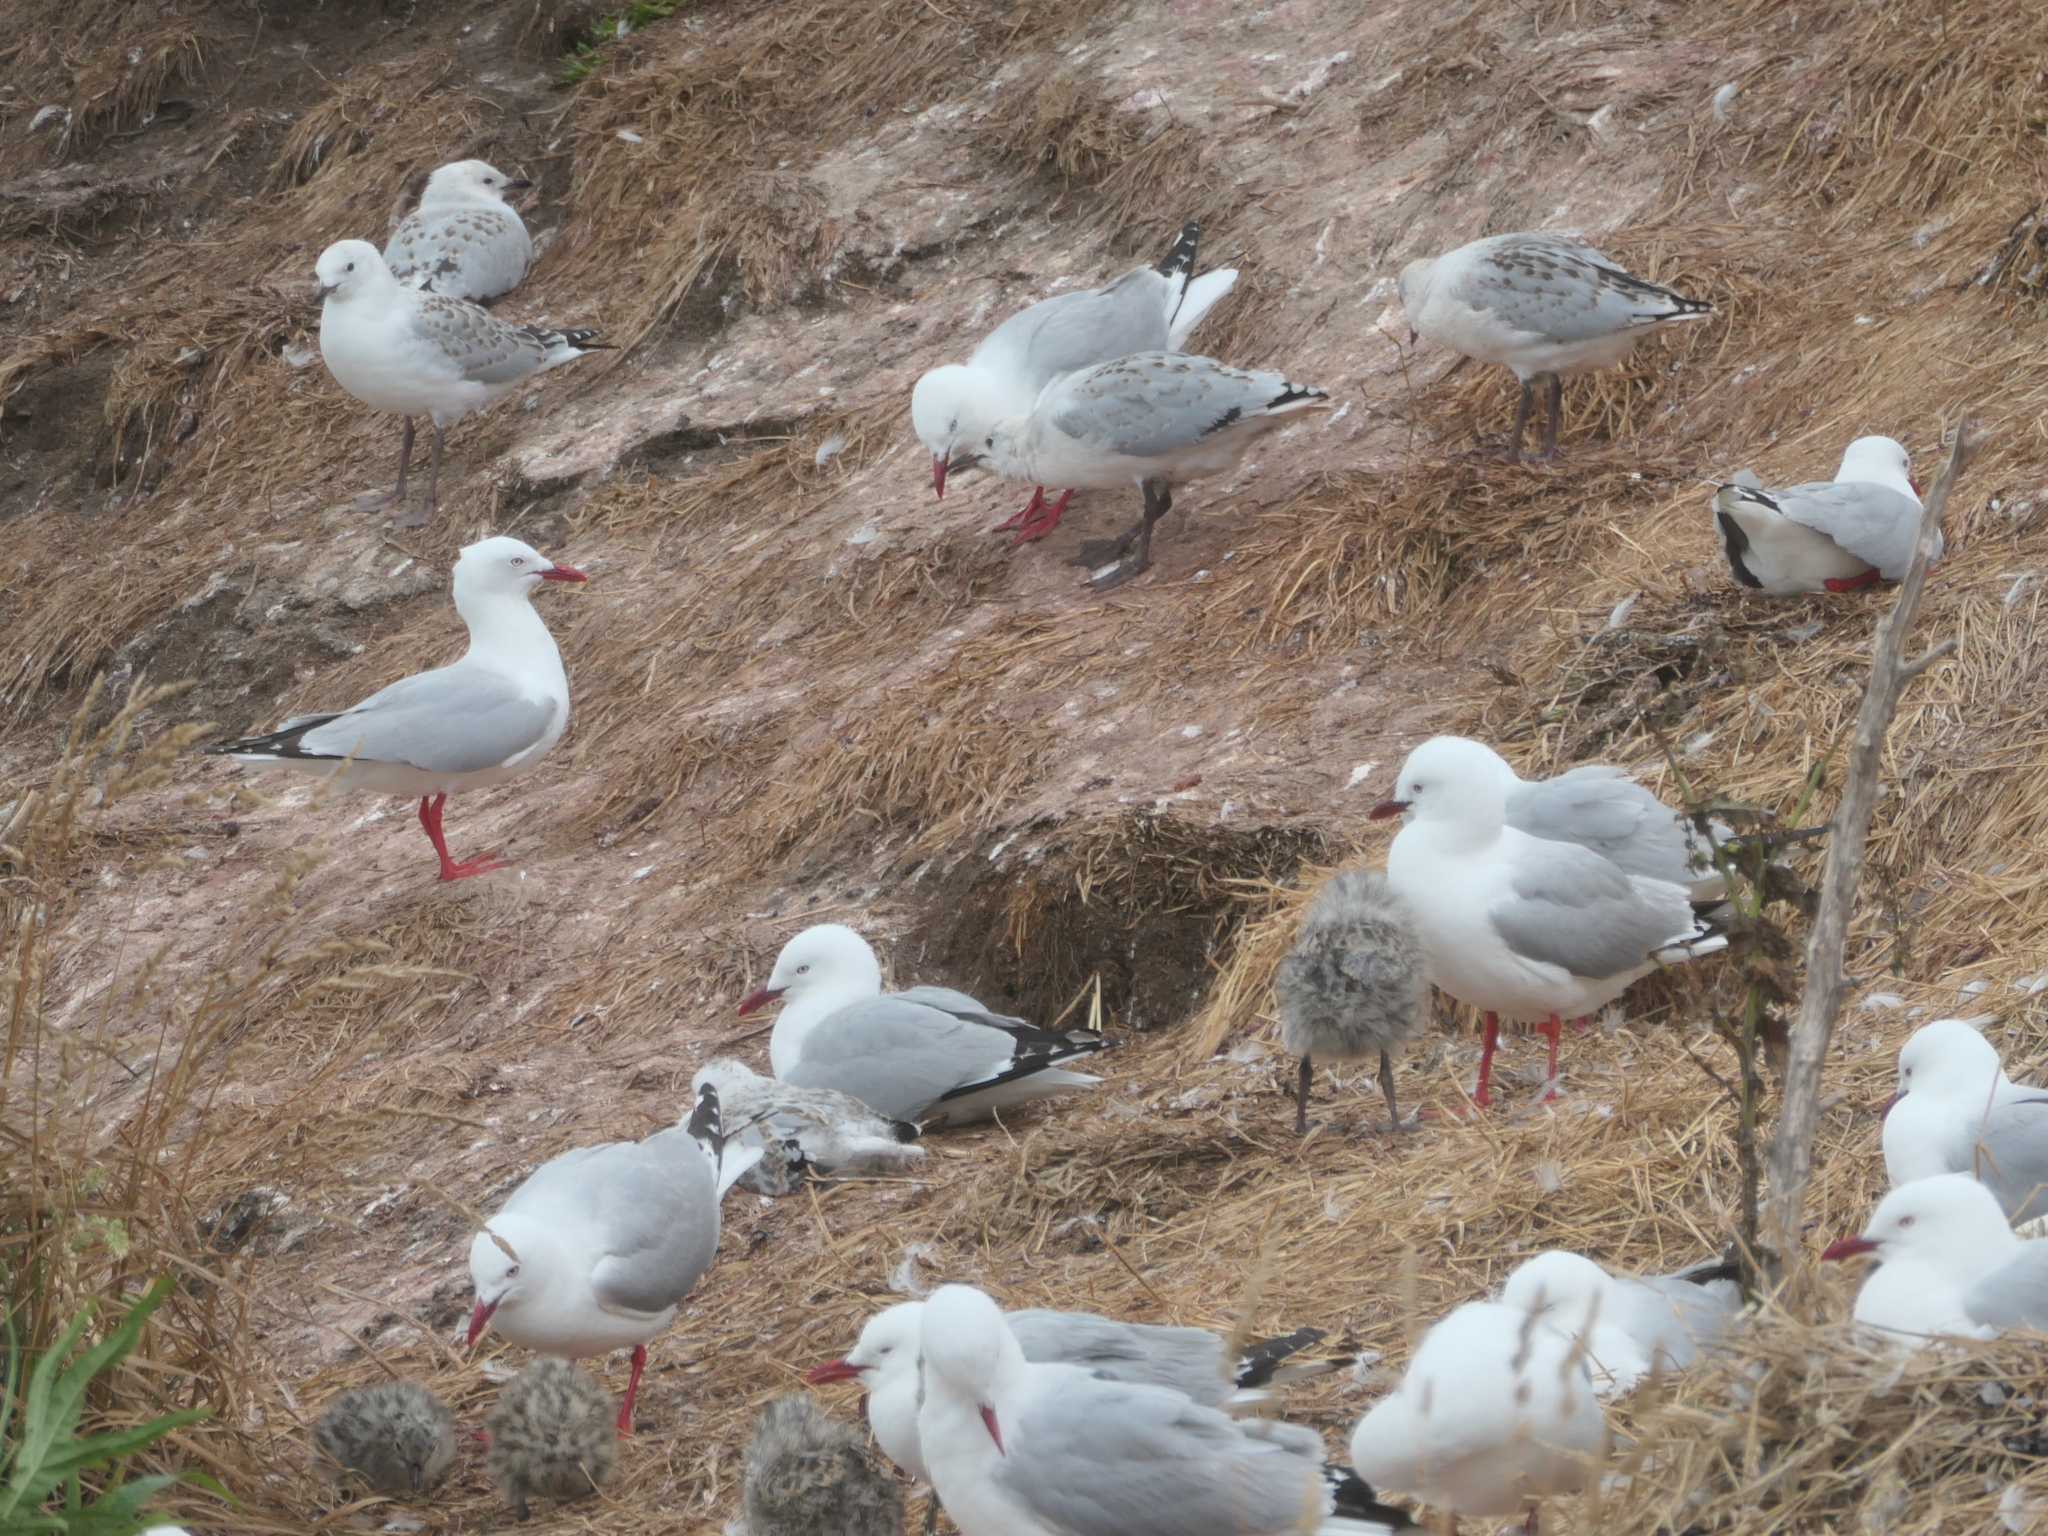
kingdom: Animalia
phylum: Chordata
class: Aves
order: Charadriiformes
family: Laridae
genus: Chroicocephalus
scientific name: Chroicocephalus novaehollandiae
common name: Silver gull
